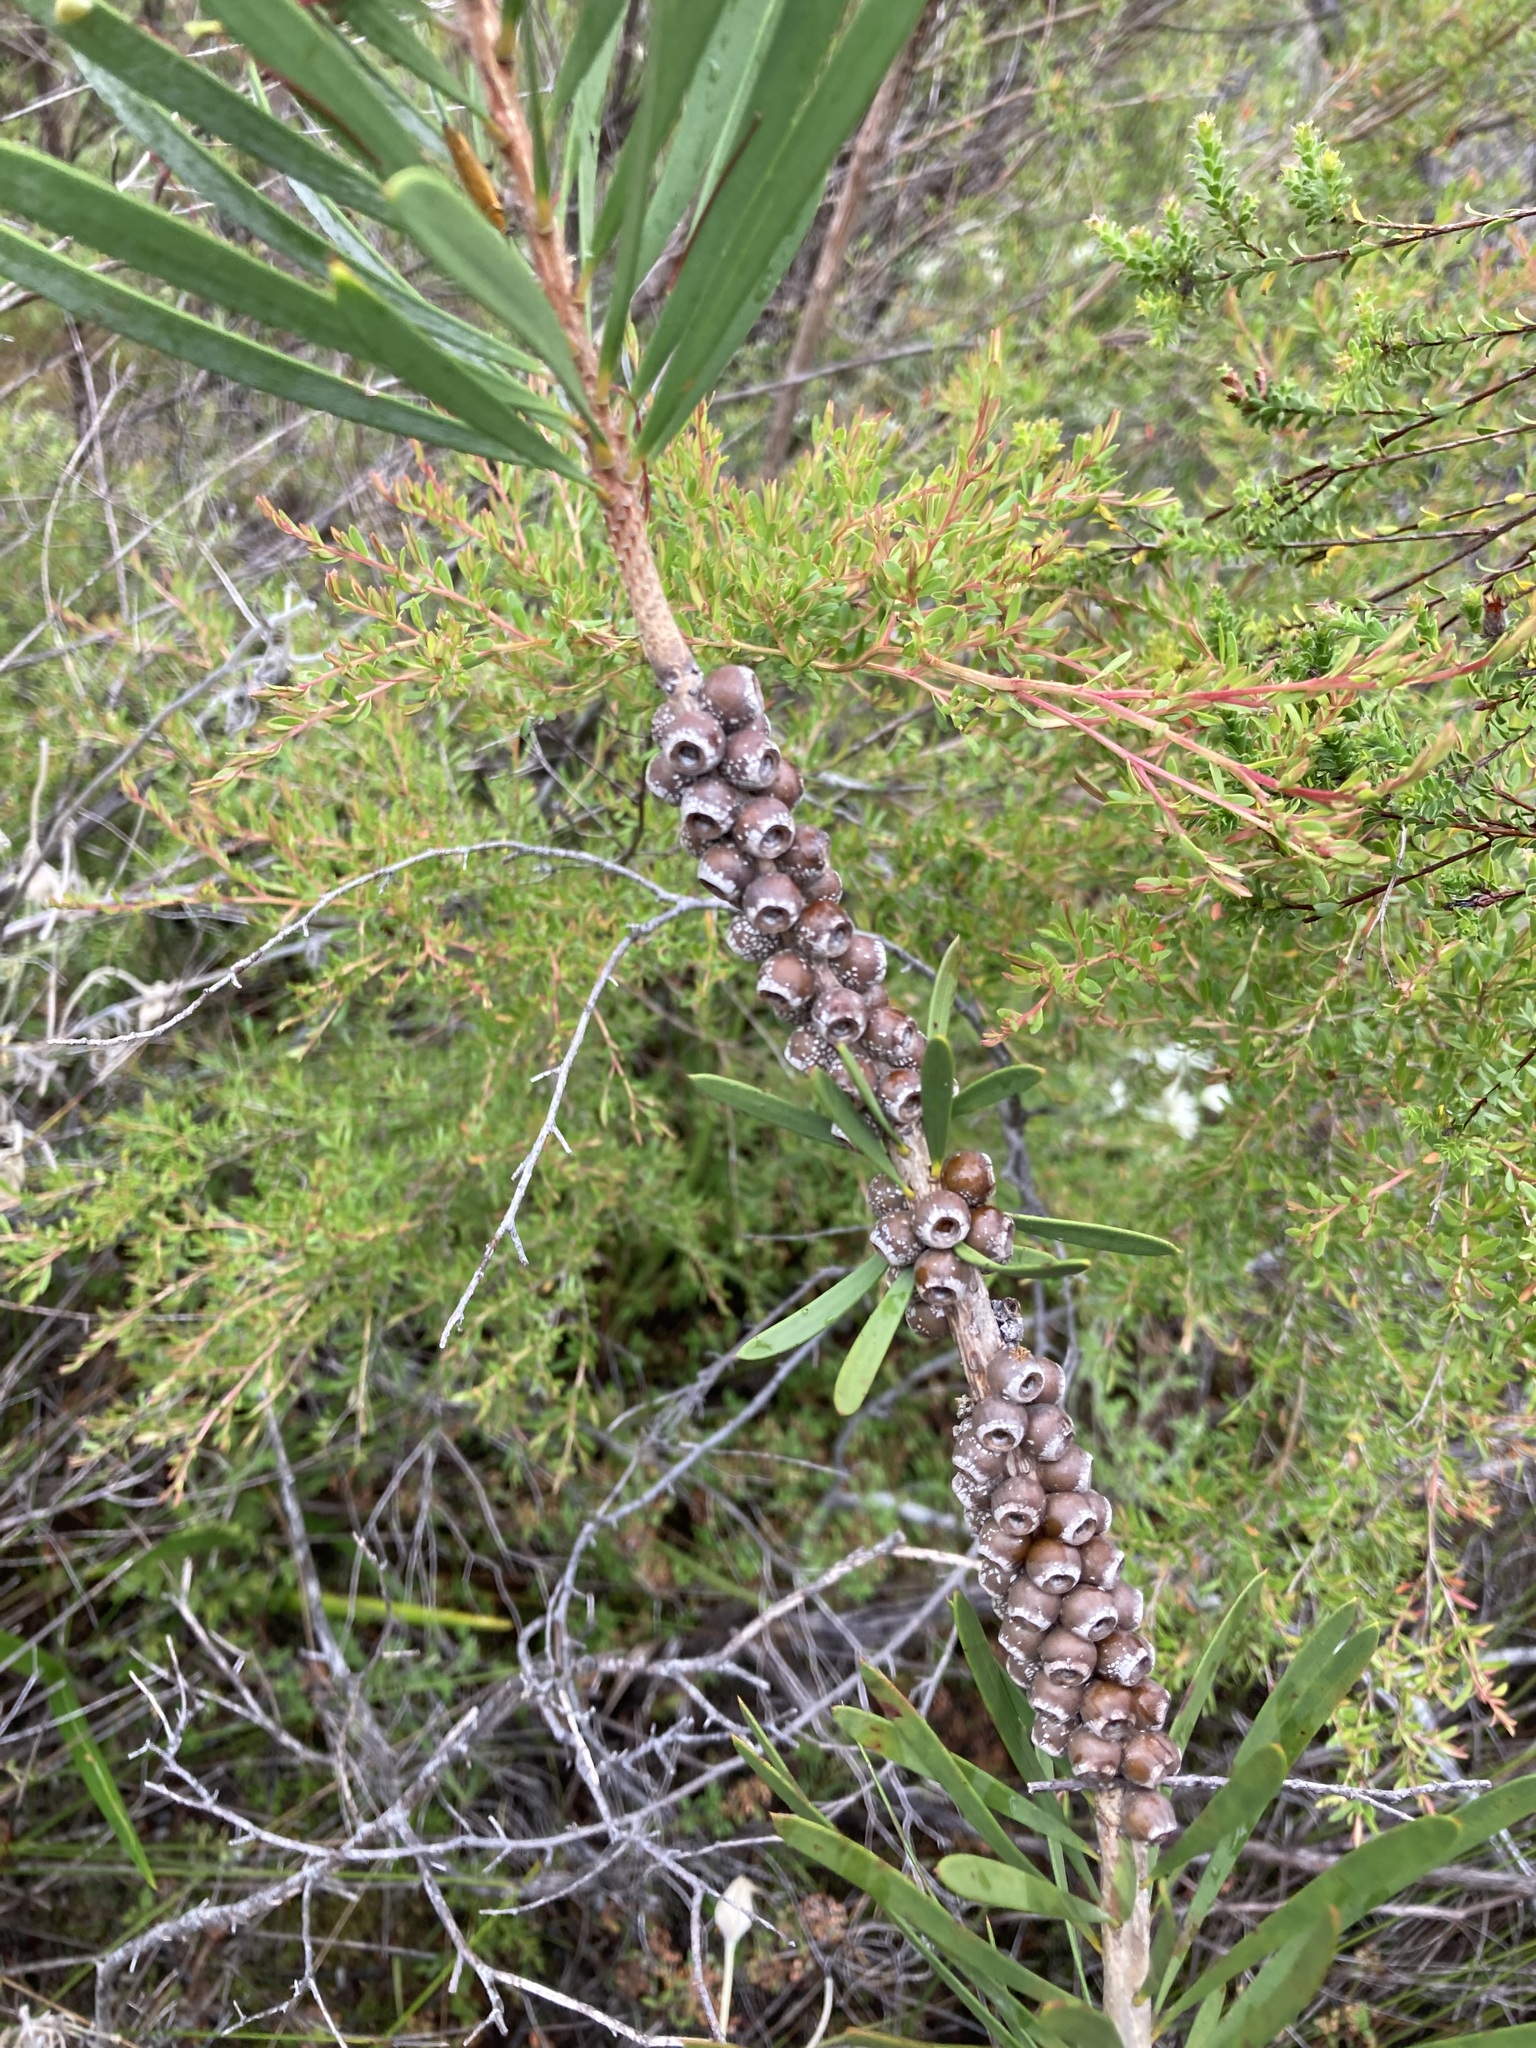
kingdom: Plantae
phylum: Tracheophyta
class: Magnoliopsida
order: Myrtales
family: Myrtaceae
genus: Callistemon
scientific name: Callistemon pachyphyllus
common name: Wallum bottlebrush
